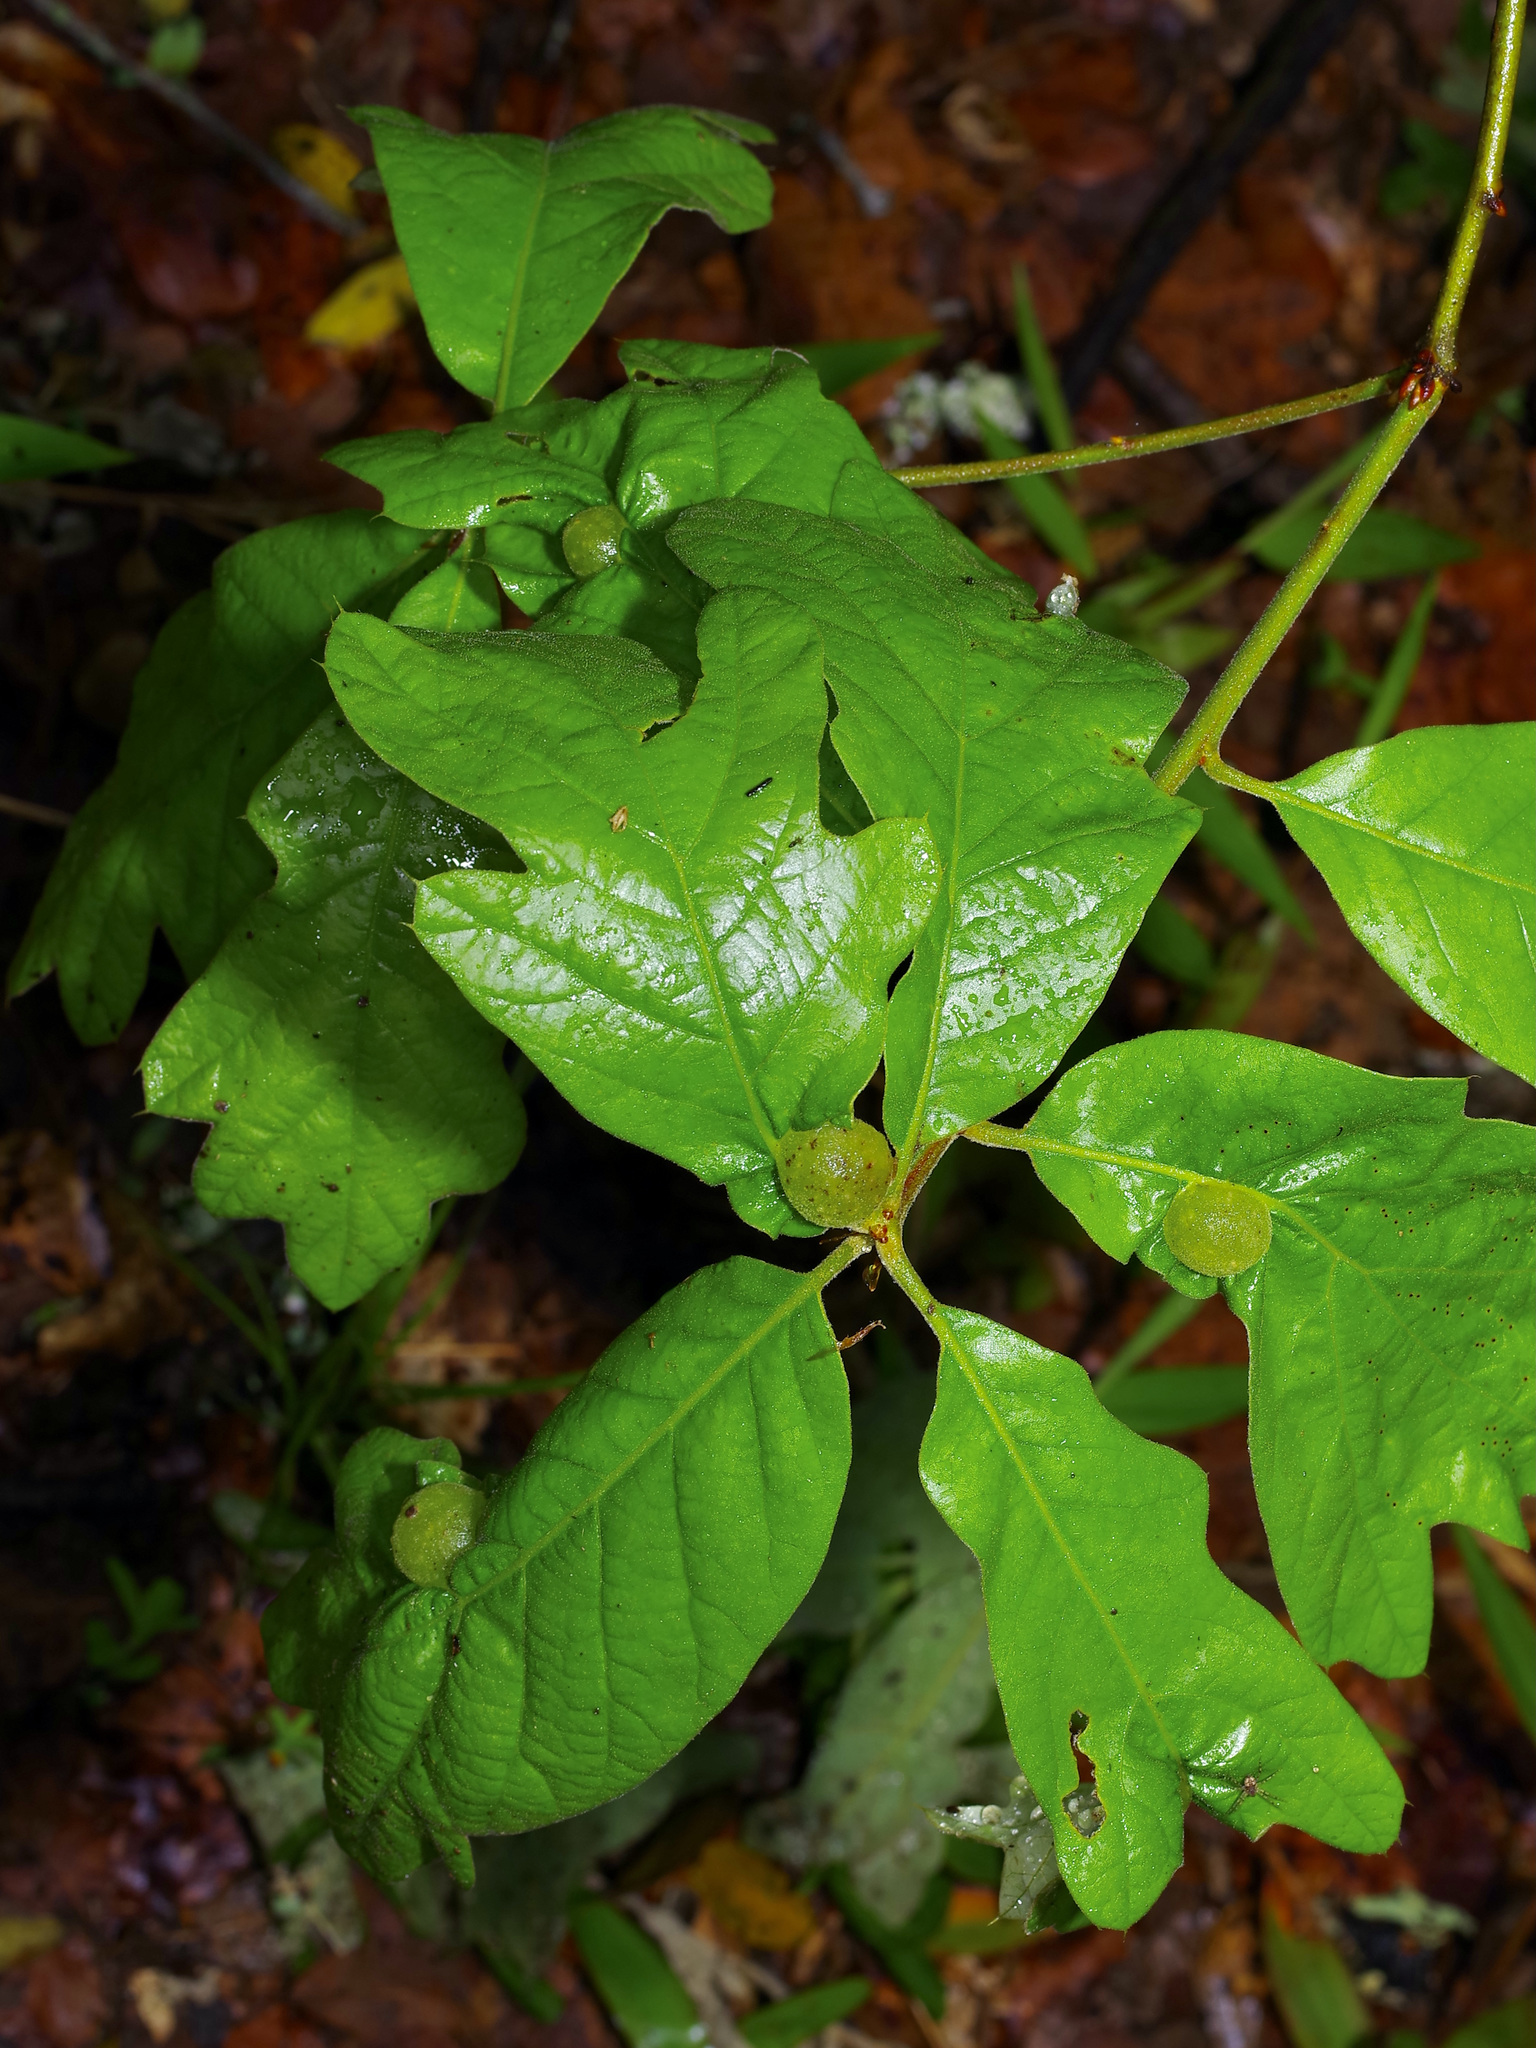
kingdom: Animalia
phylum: Arthropoda
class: Insecta
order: Hymenoptera
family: Cynipidae
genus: Dryocosmus
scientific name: Dryocosmus quercuspalustris
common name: Succulent oak gall wasp
